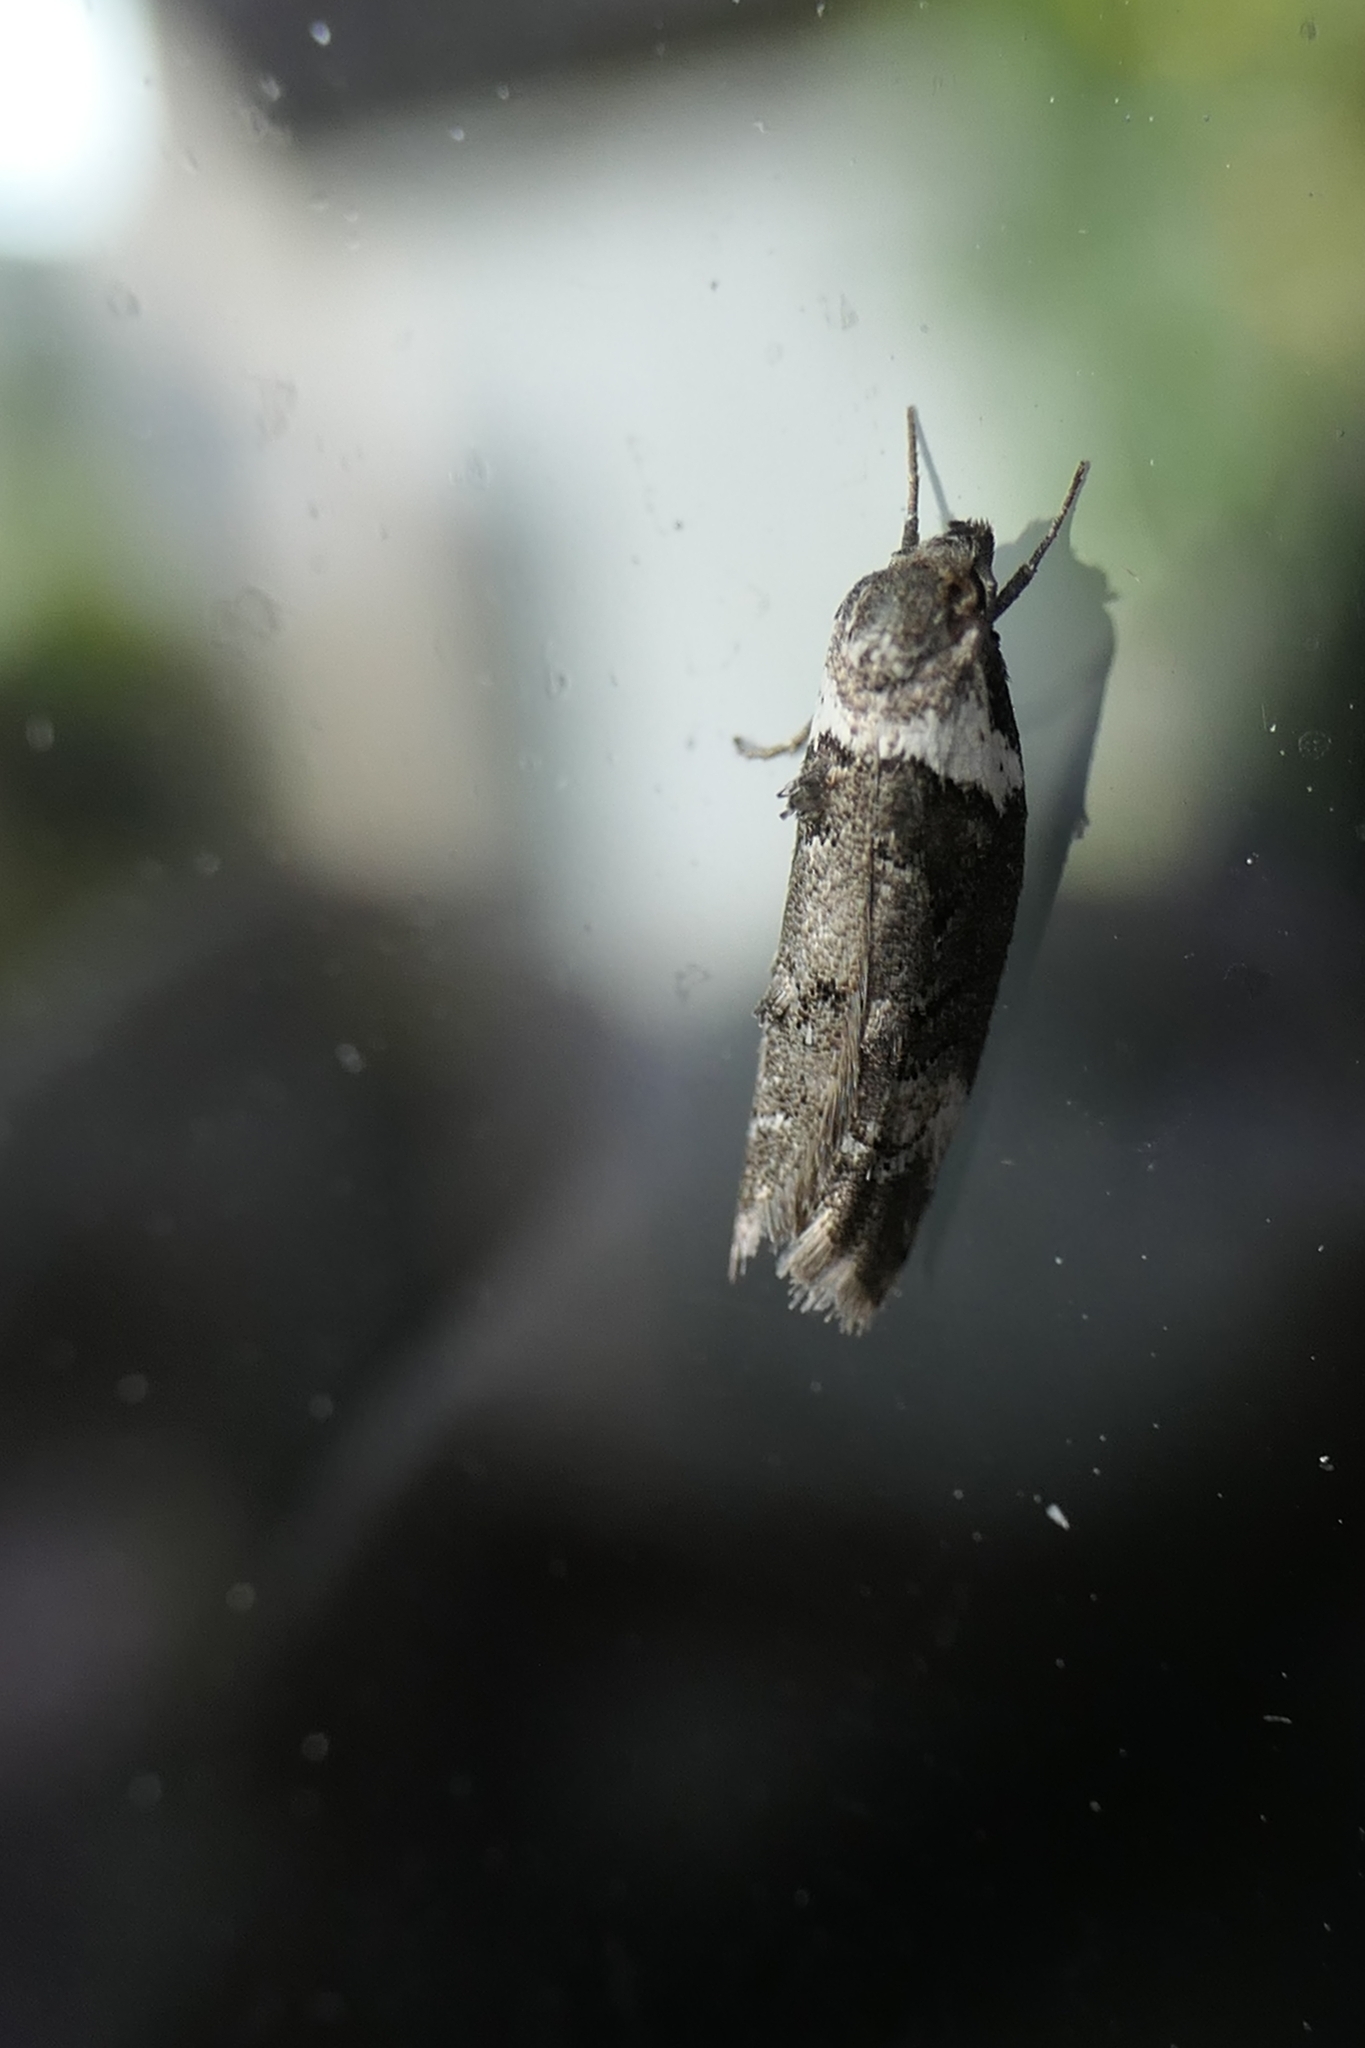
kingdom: Animalia
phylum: Arthropoda
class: Insecta
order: Lepidoptera
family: Oecophoridae
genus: Trachypepla
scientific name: Trachypepla conspicuella
